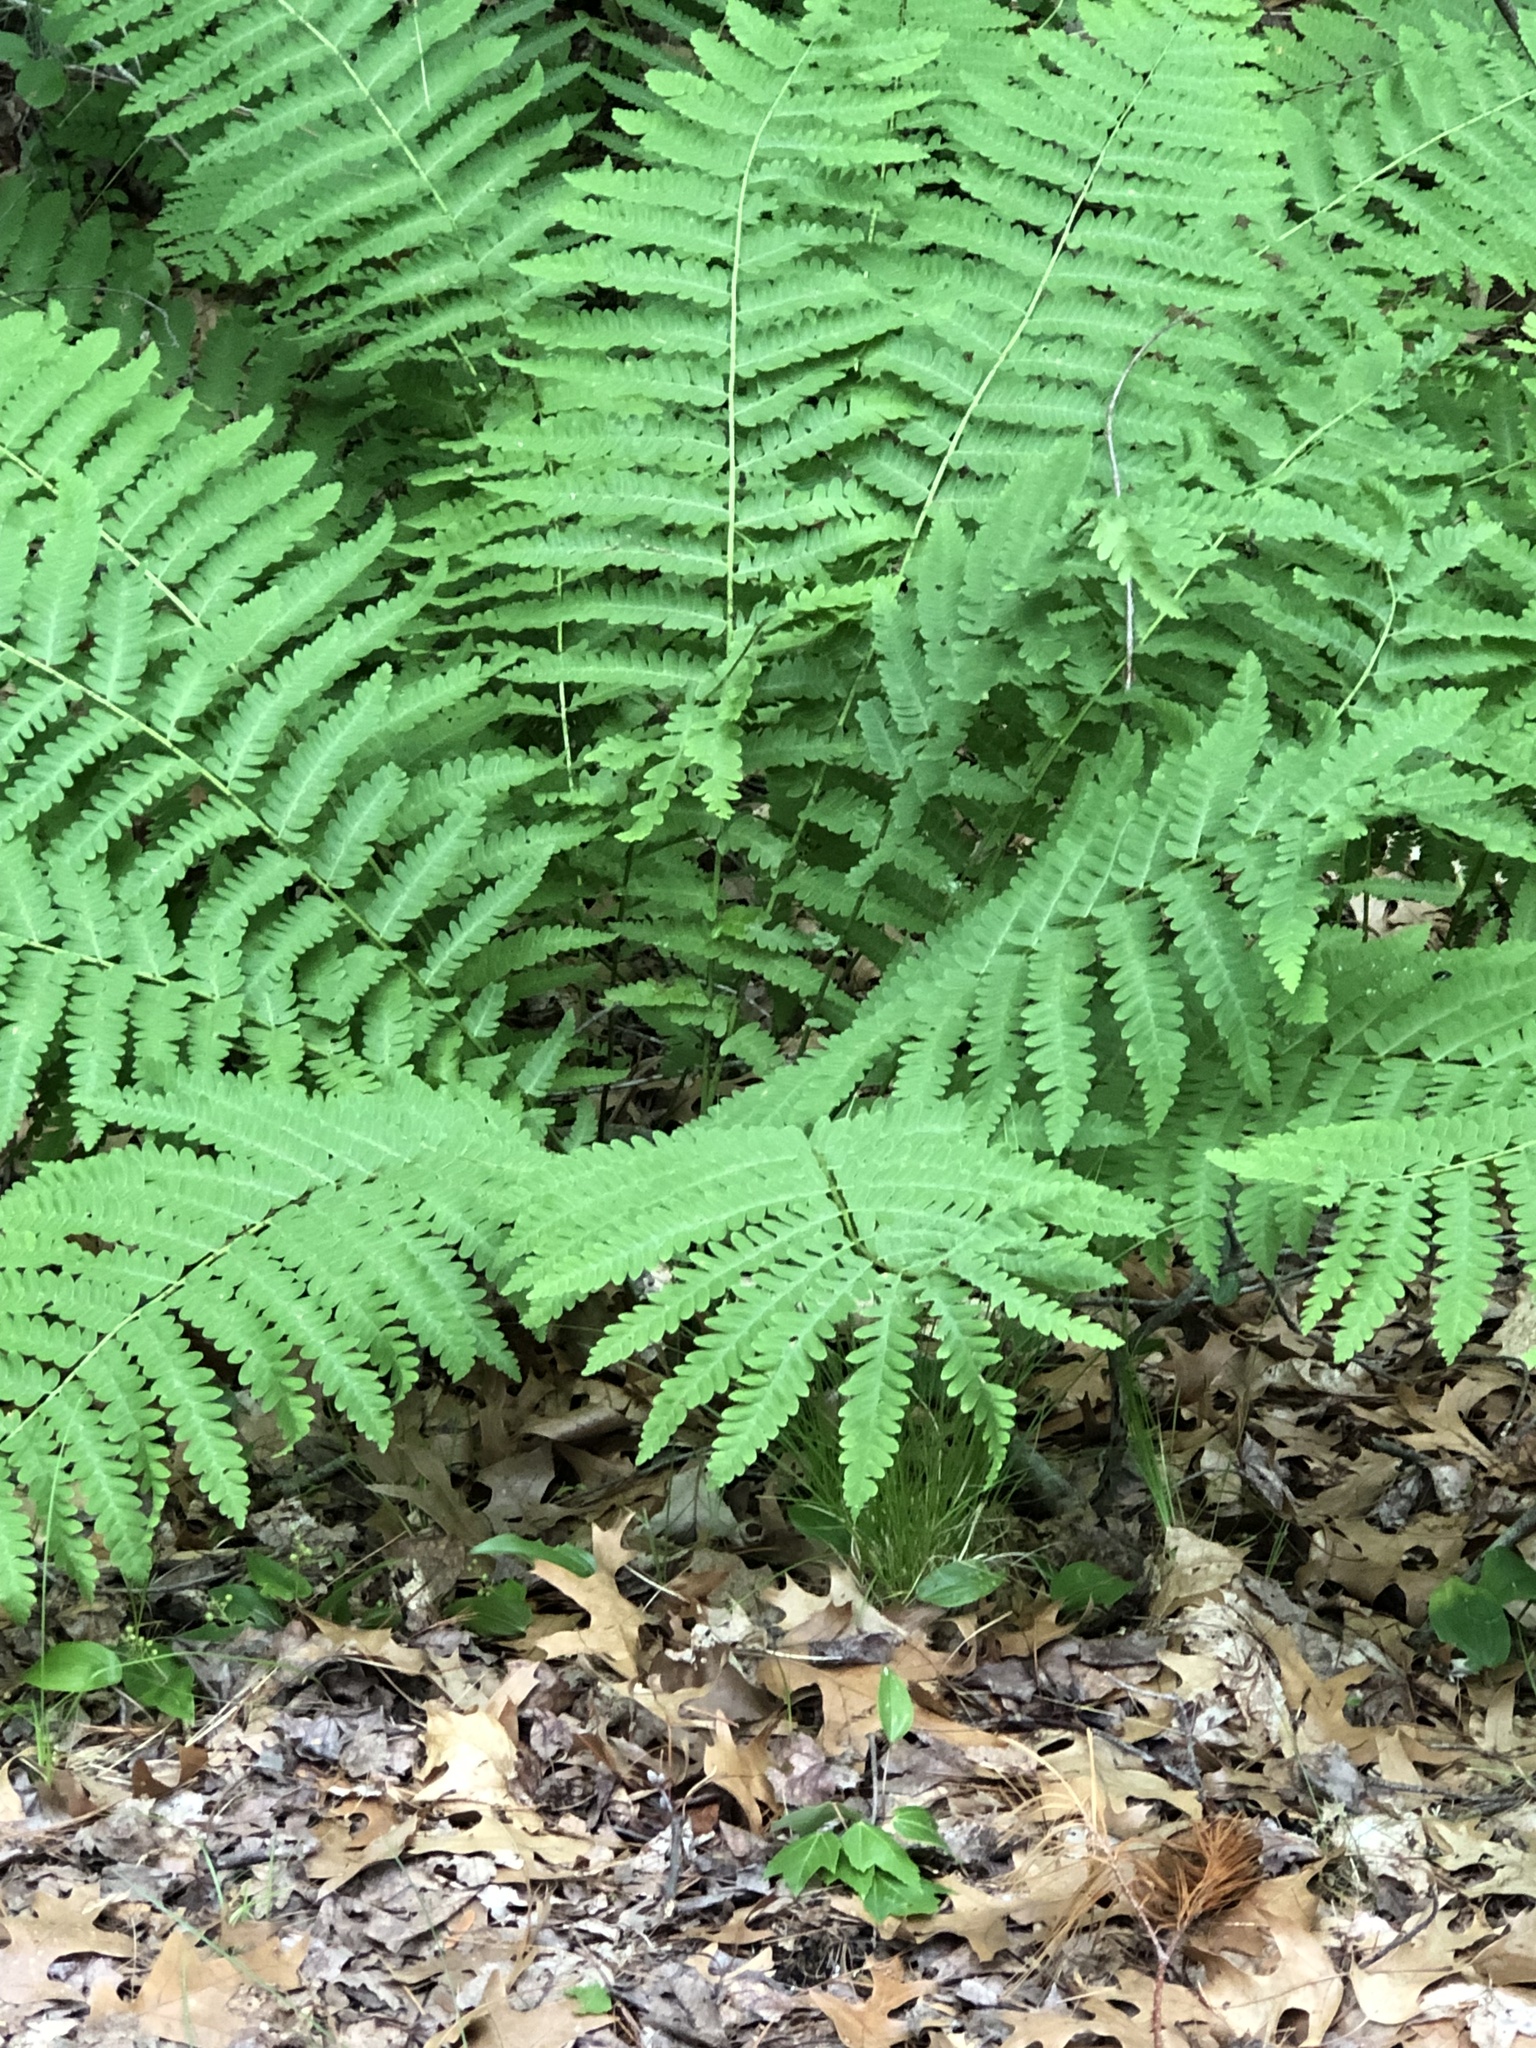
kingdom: Plantae
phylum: Tracheophyta
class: Polypodiopsida
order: Osmundales
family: Osmundaceae
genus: Claytosmunda
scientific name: Claytosmunda claytoniana
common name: Clayton's fern
